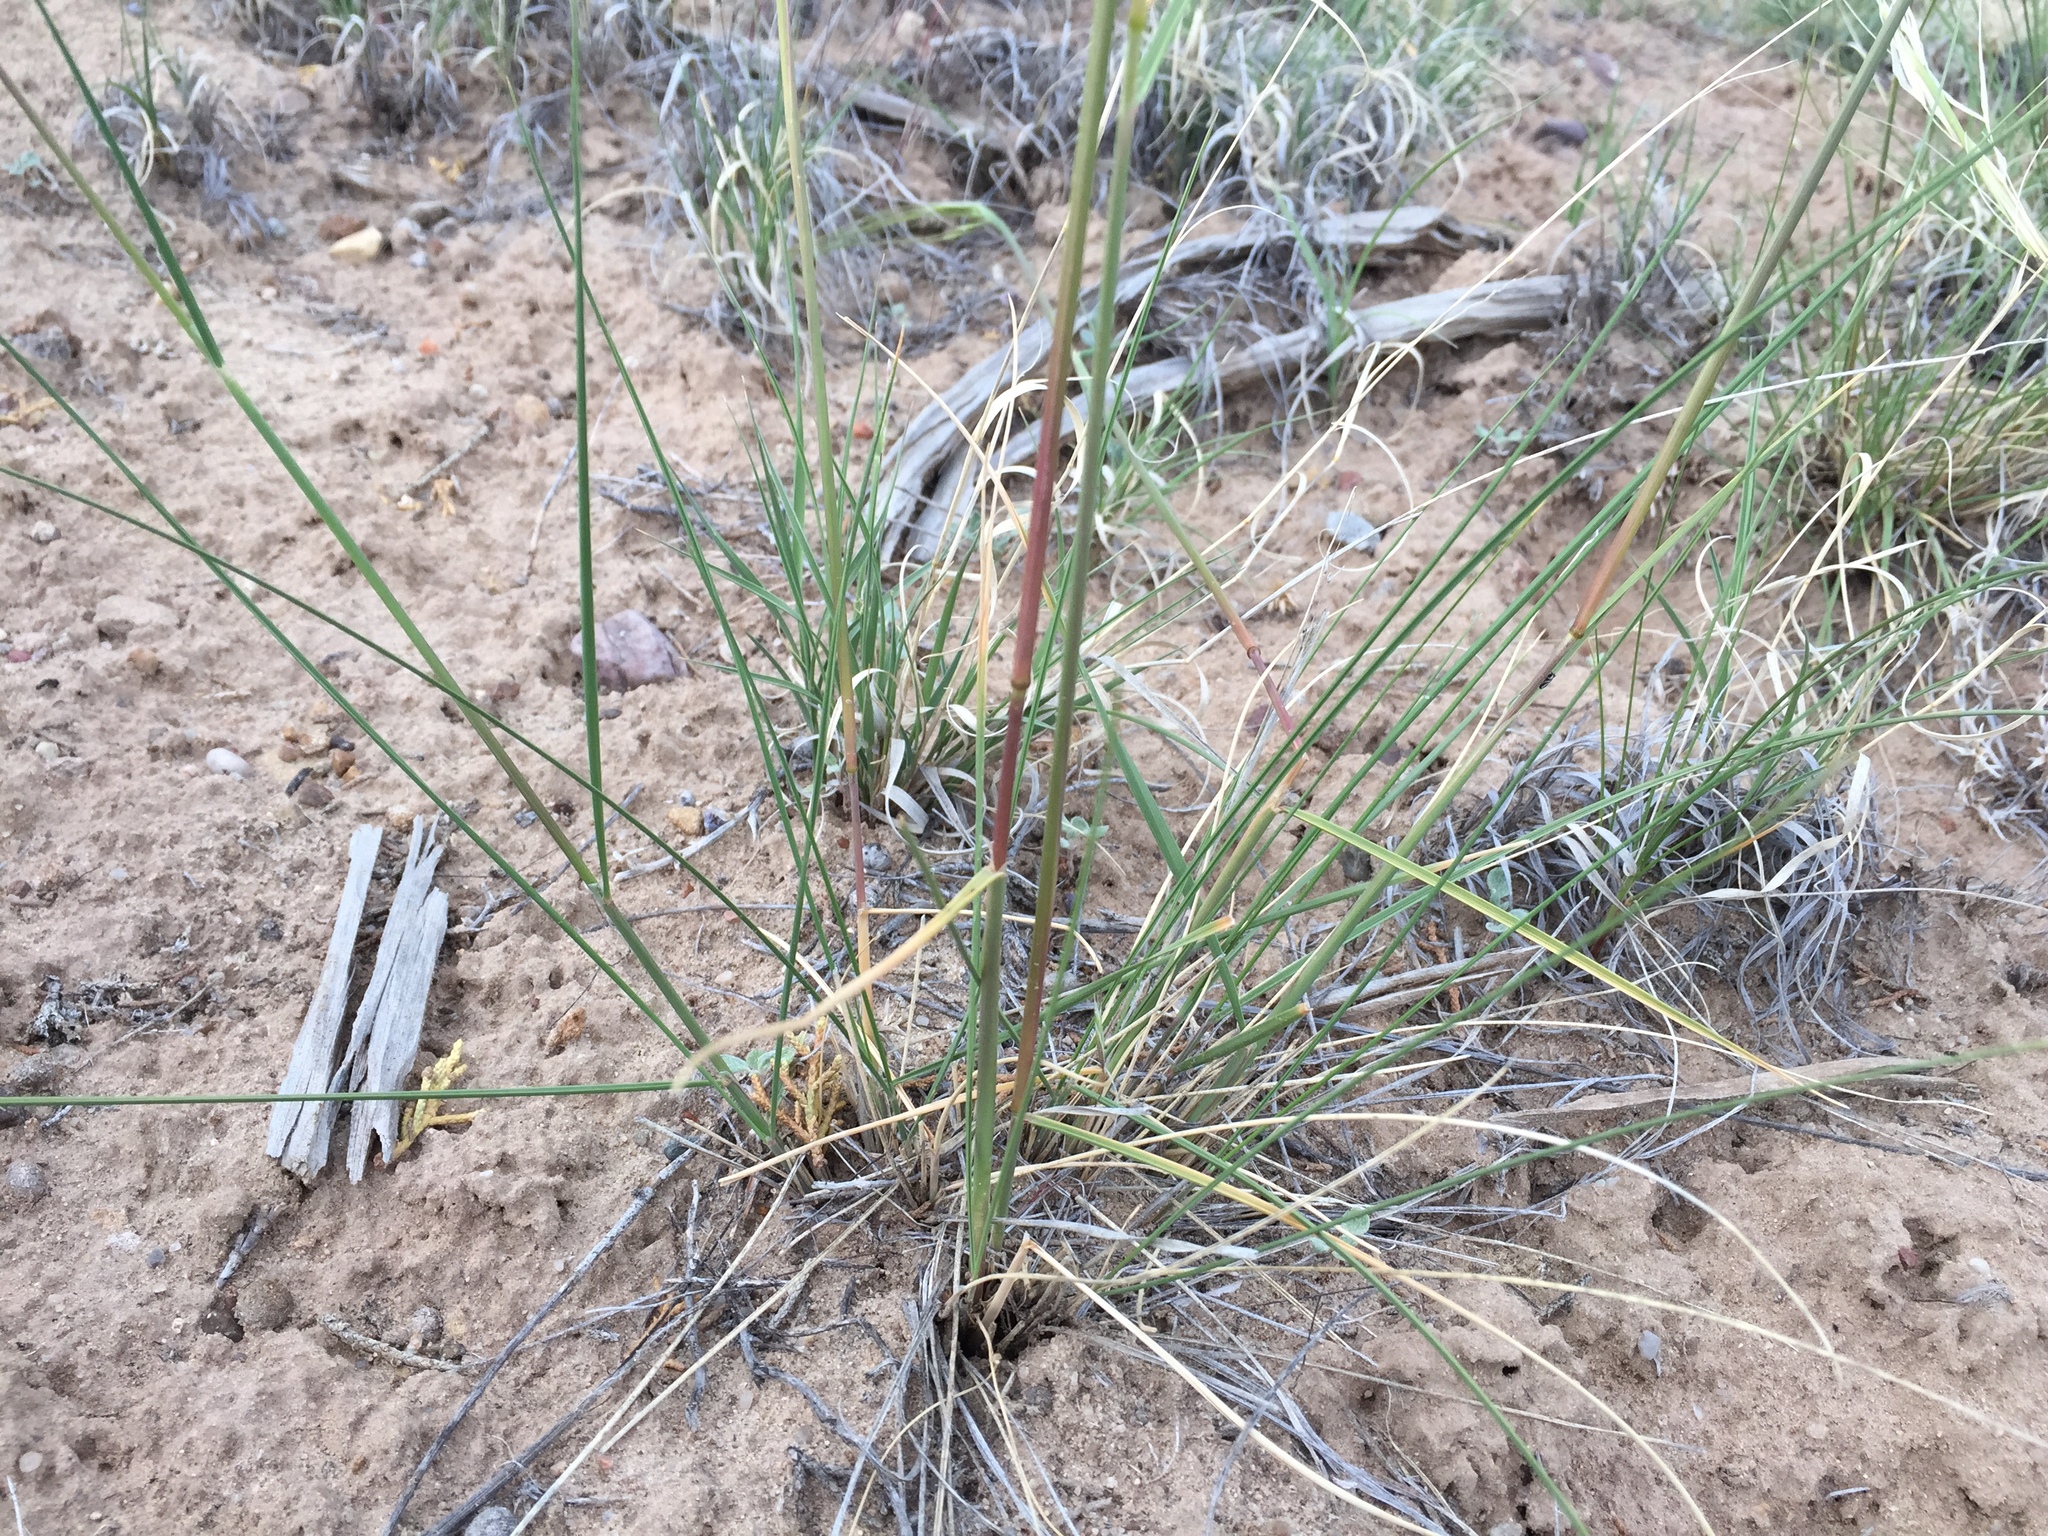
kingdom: Plantae
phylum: Tracheophyta
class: Liliopsida
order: Poales
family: Poaceae
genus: Hesperostipa
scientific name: Hesperostipa comata
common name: Needle-and-thread grass
